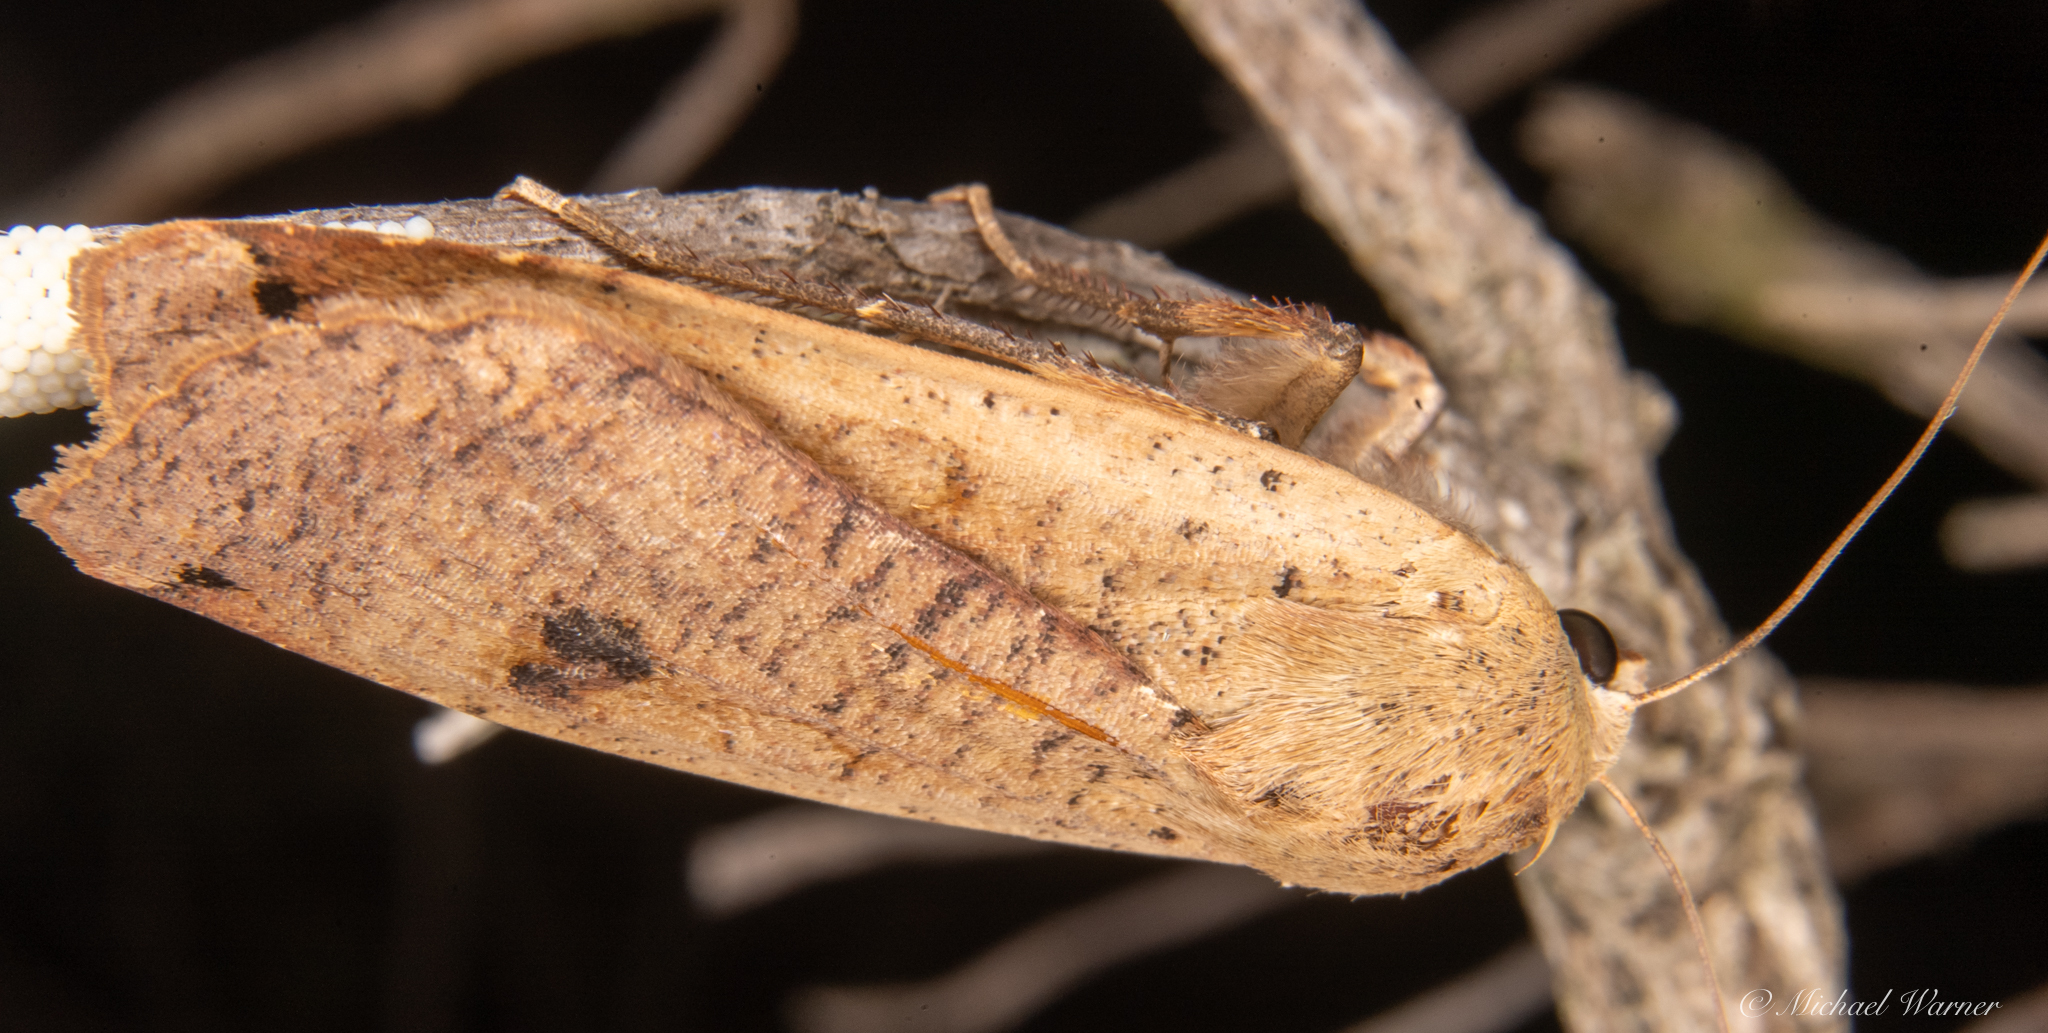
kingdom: Animalia
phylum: Arthropoda
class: Insecta
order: Lepidoptera
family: Noctuidae
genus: Noctua
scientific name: Noctua pronuba
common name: Large yellow underwing
